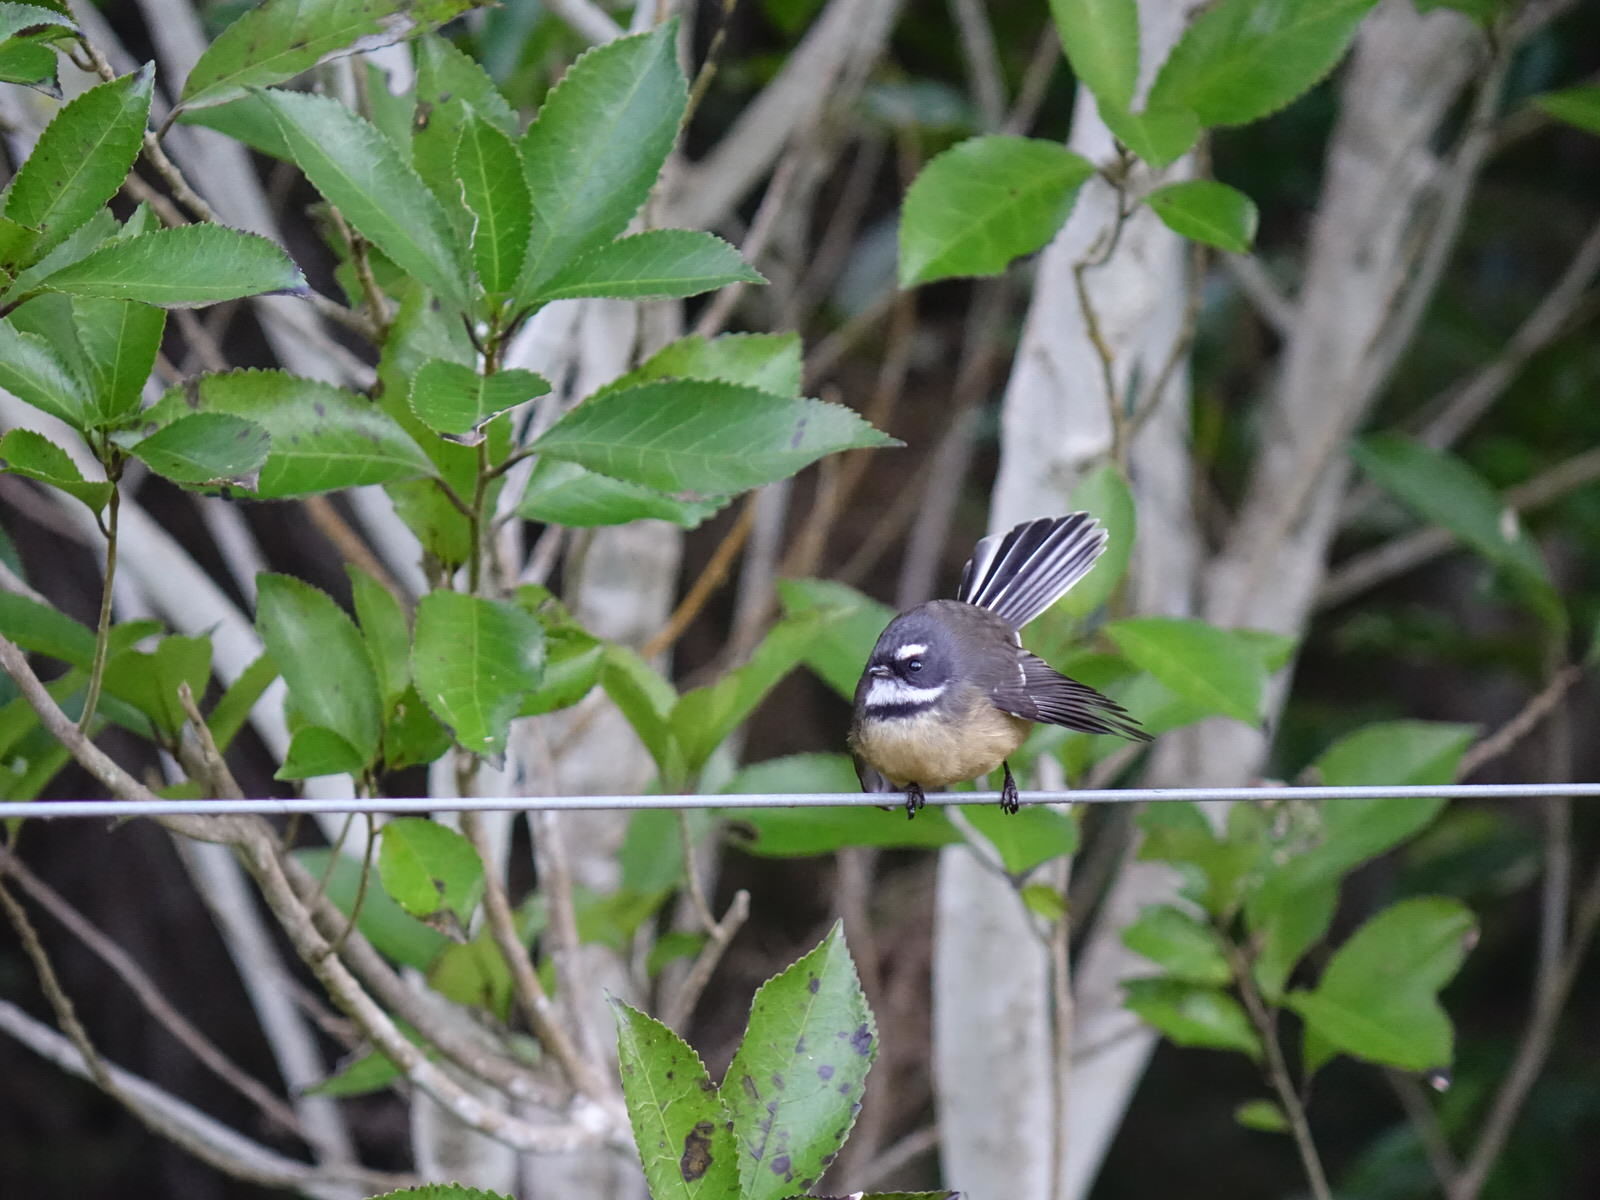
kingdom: Animalia
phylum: Chordata
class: Aves
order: Passeriformes
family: Rhipiduridae
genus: Rhipidura
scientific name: Rhipidura fuliginosa
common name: New zealand fantail
